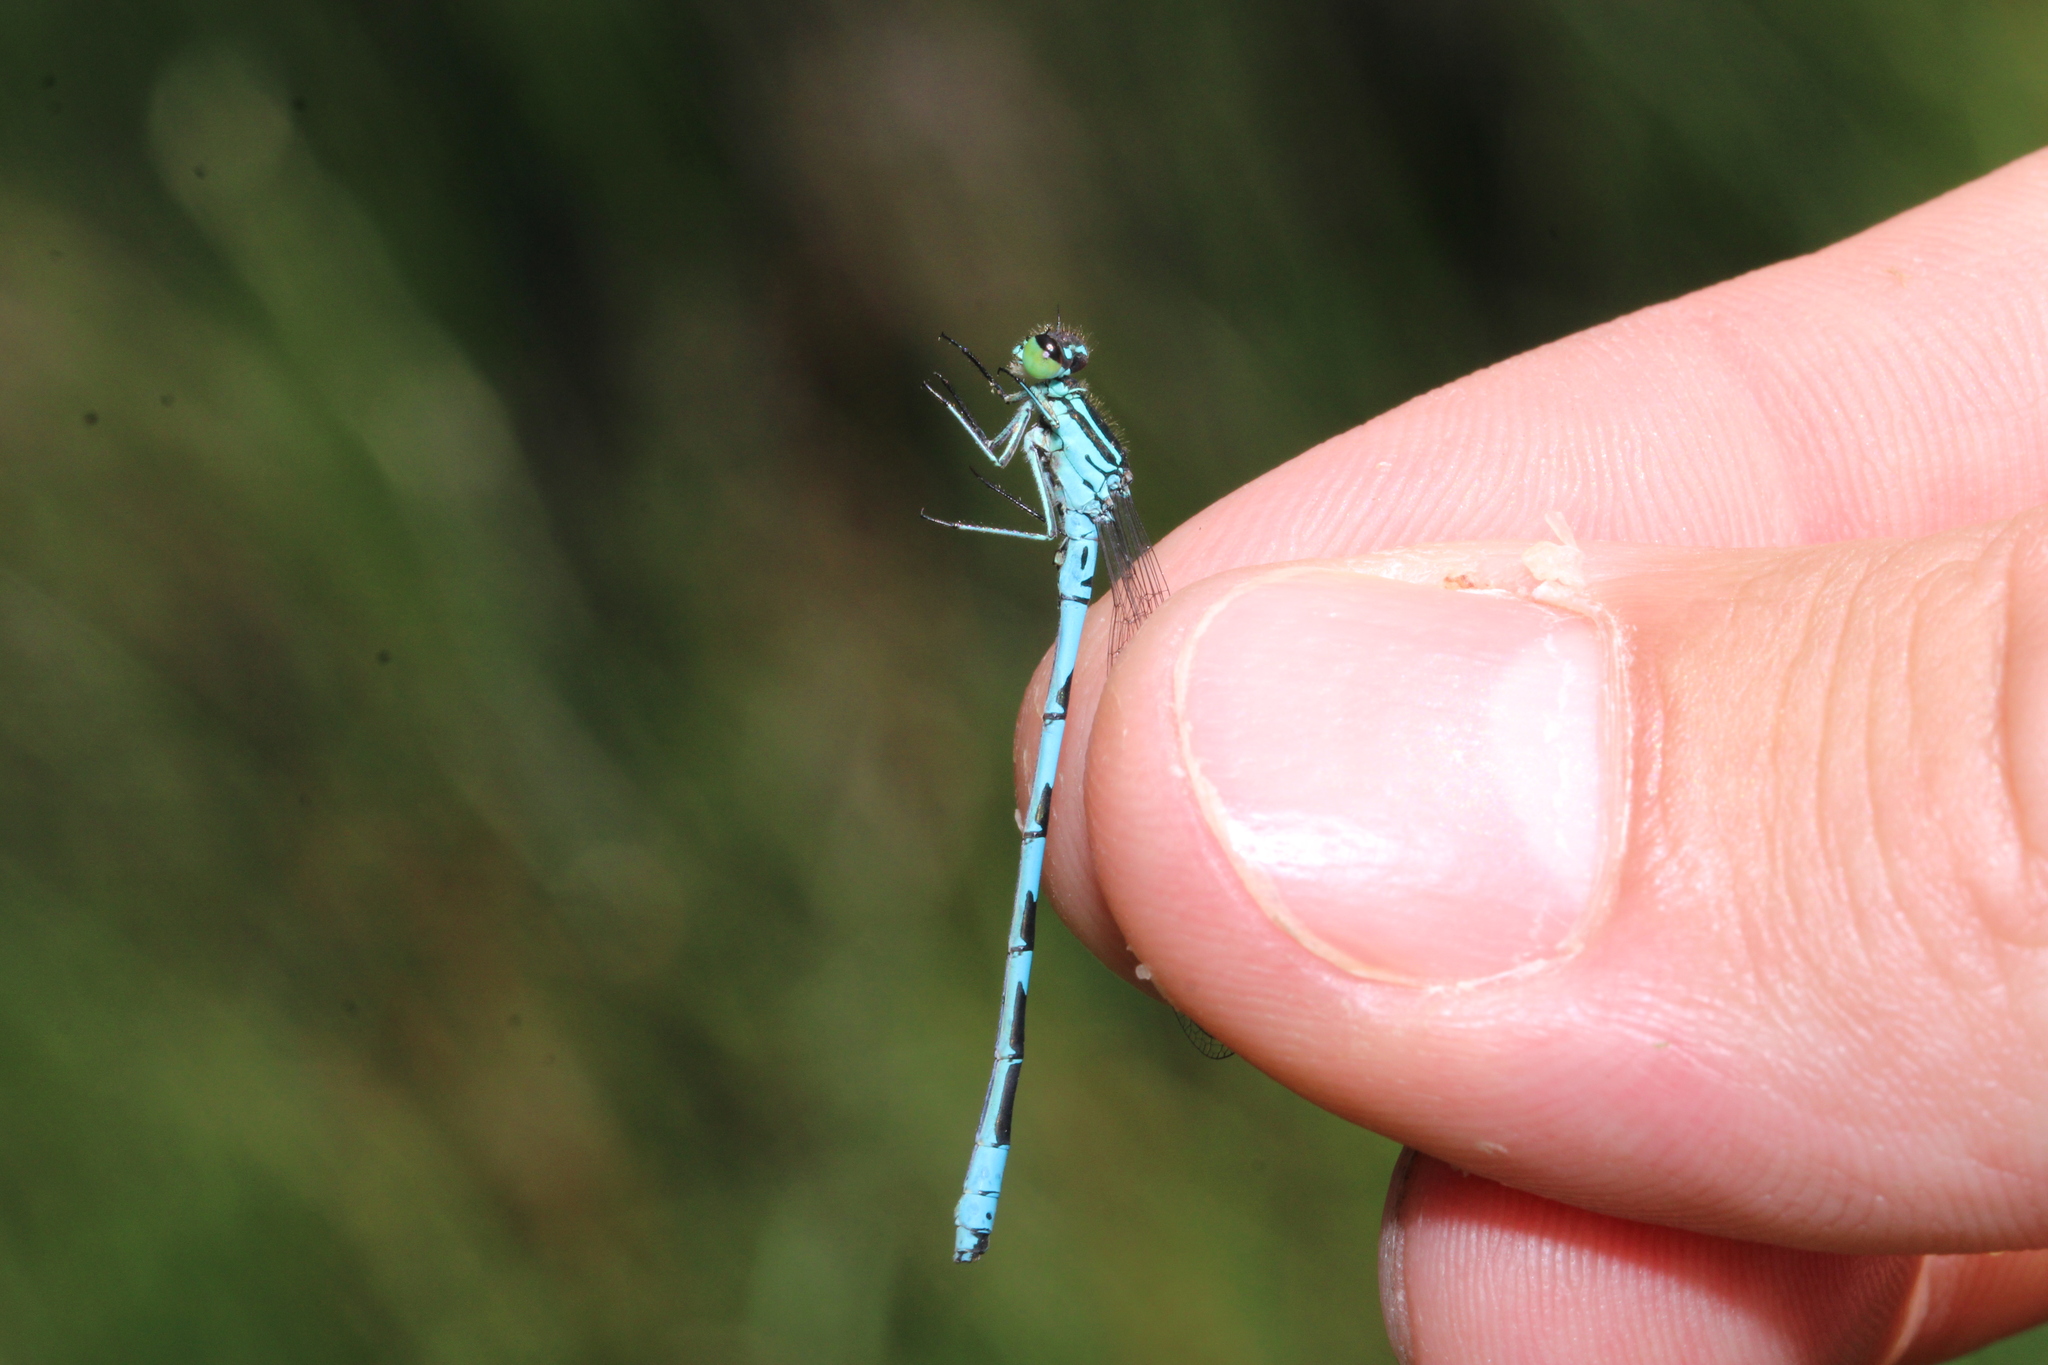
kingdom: Animalia
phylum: Arthropoda
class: Insecta
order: Odonata
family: Coenagrionidae
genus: Coenagrion
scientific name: Coenagrion hastulatum
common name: Spearhead bluet
